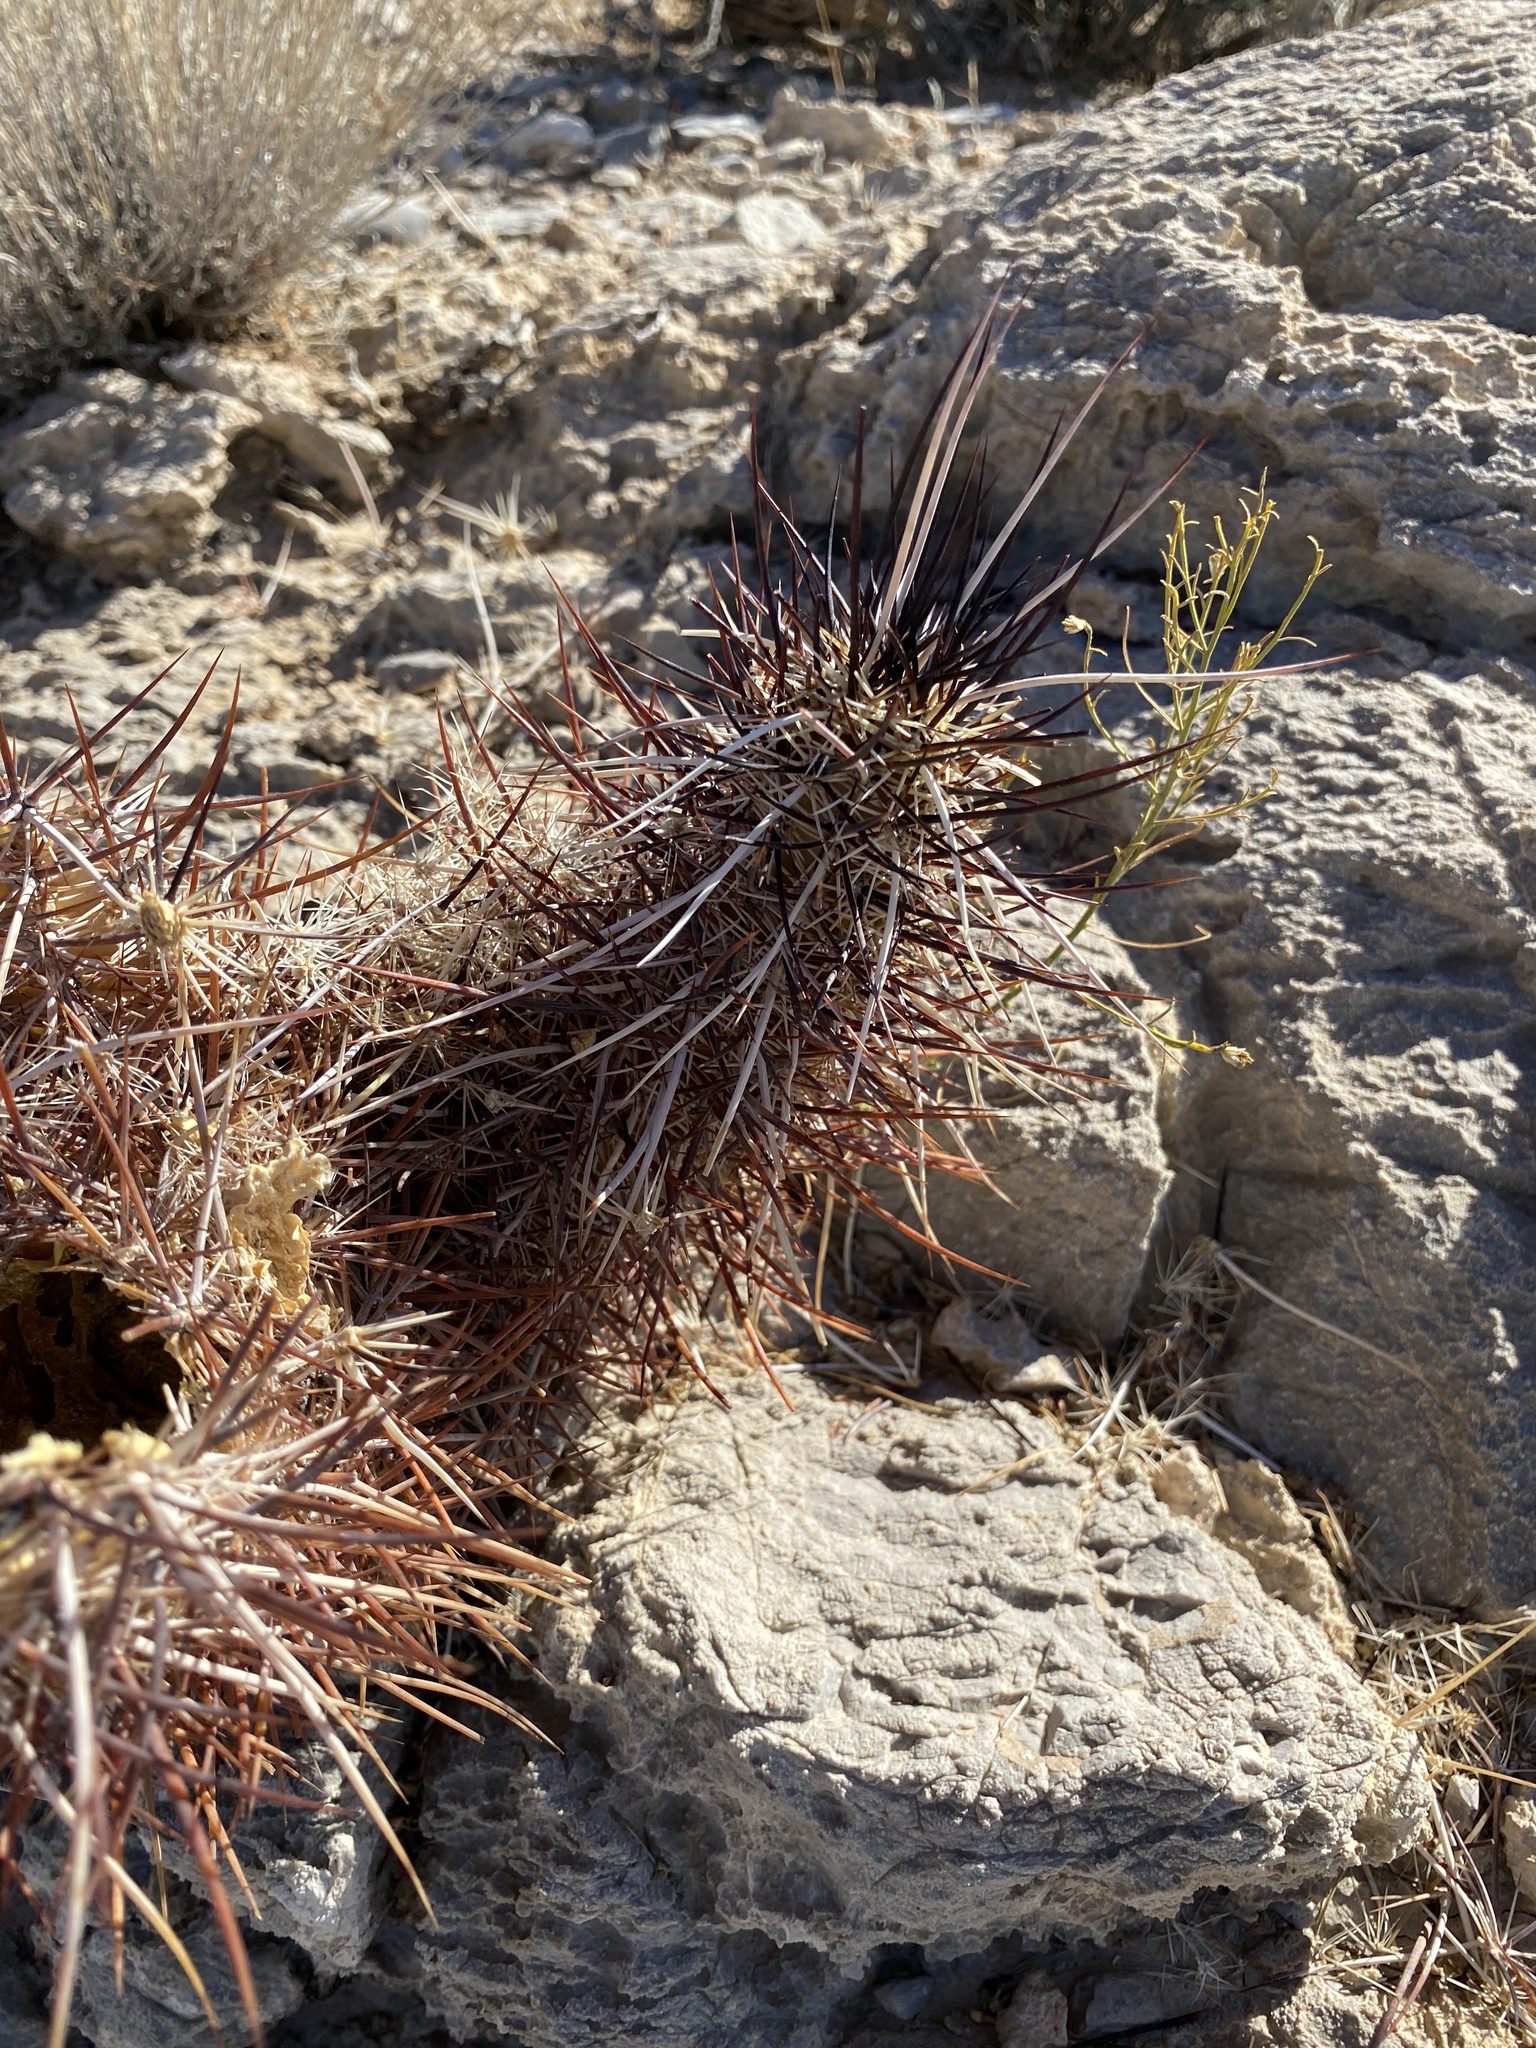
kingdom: Plantae
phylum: Tracheophyta
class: Magnoliopsida
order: Caryophyllales
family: Cactaceae
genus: Echinocereus
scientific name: Echinocereus engelmannii
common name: Engelmann's hedgehog cactus
